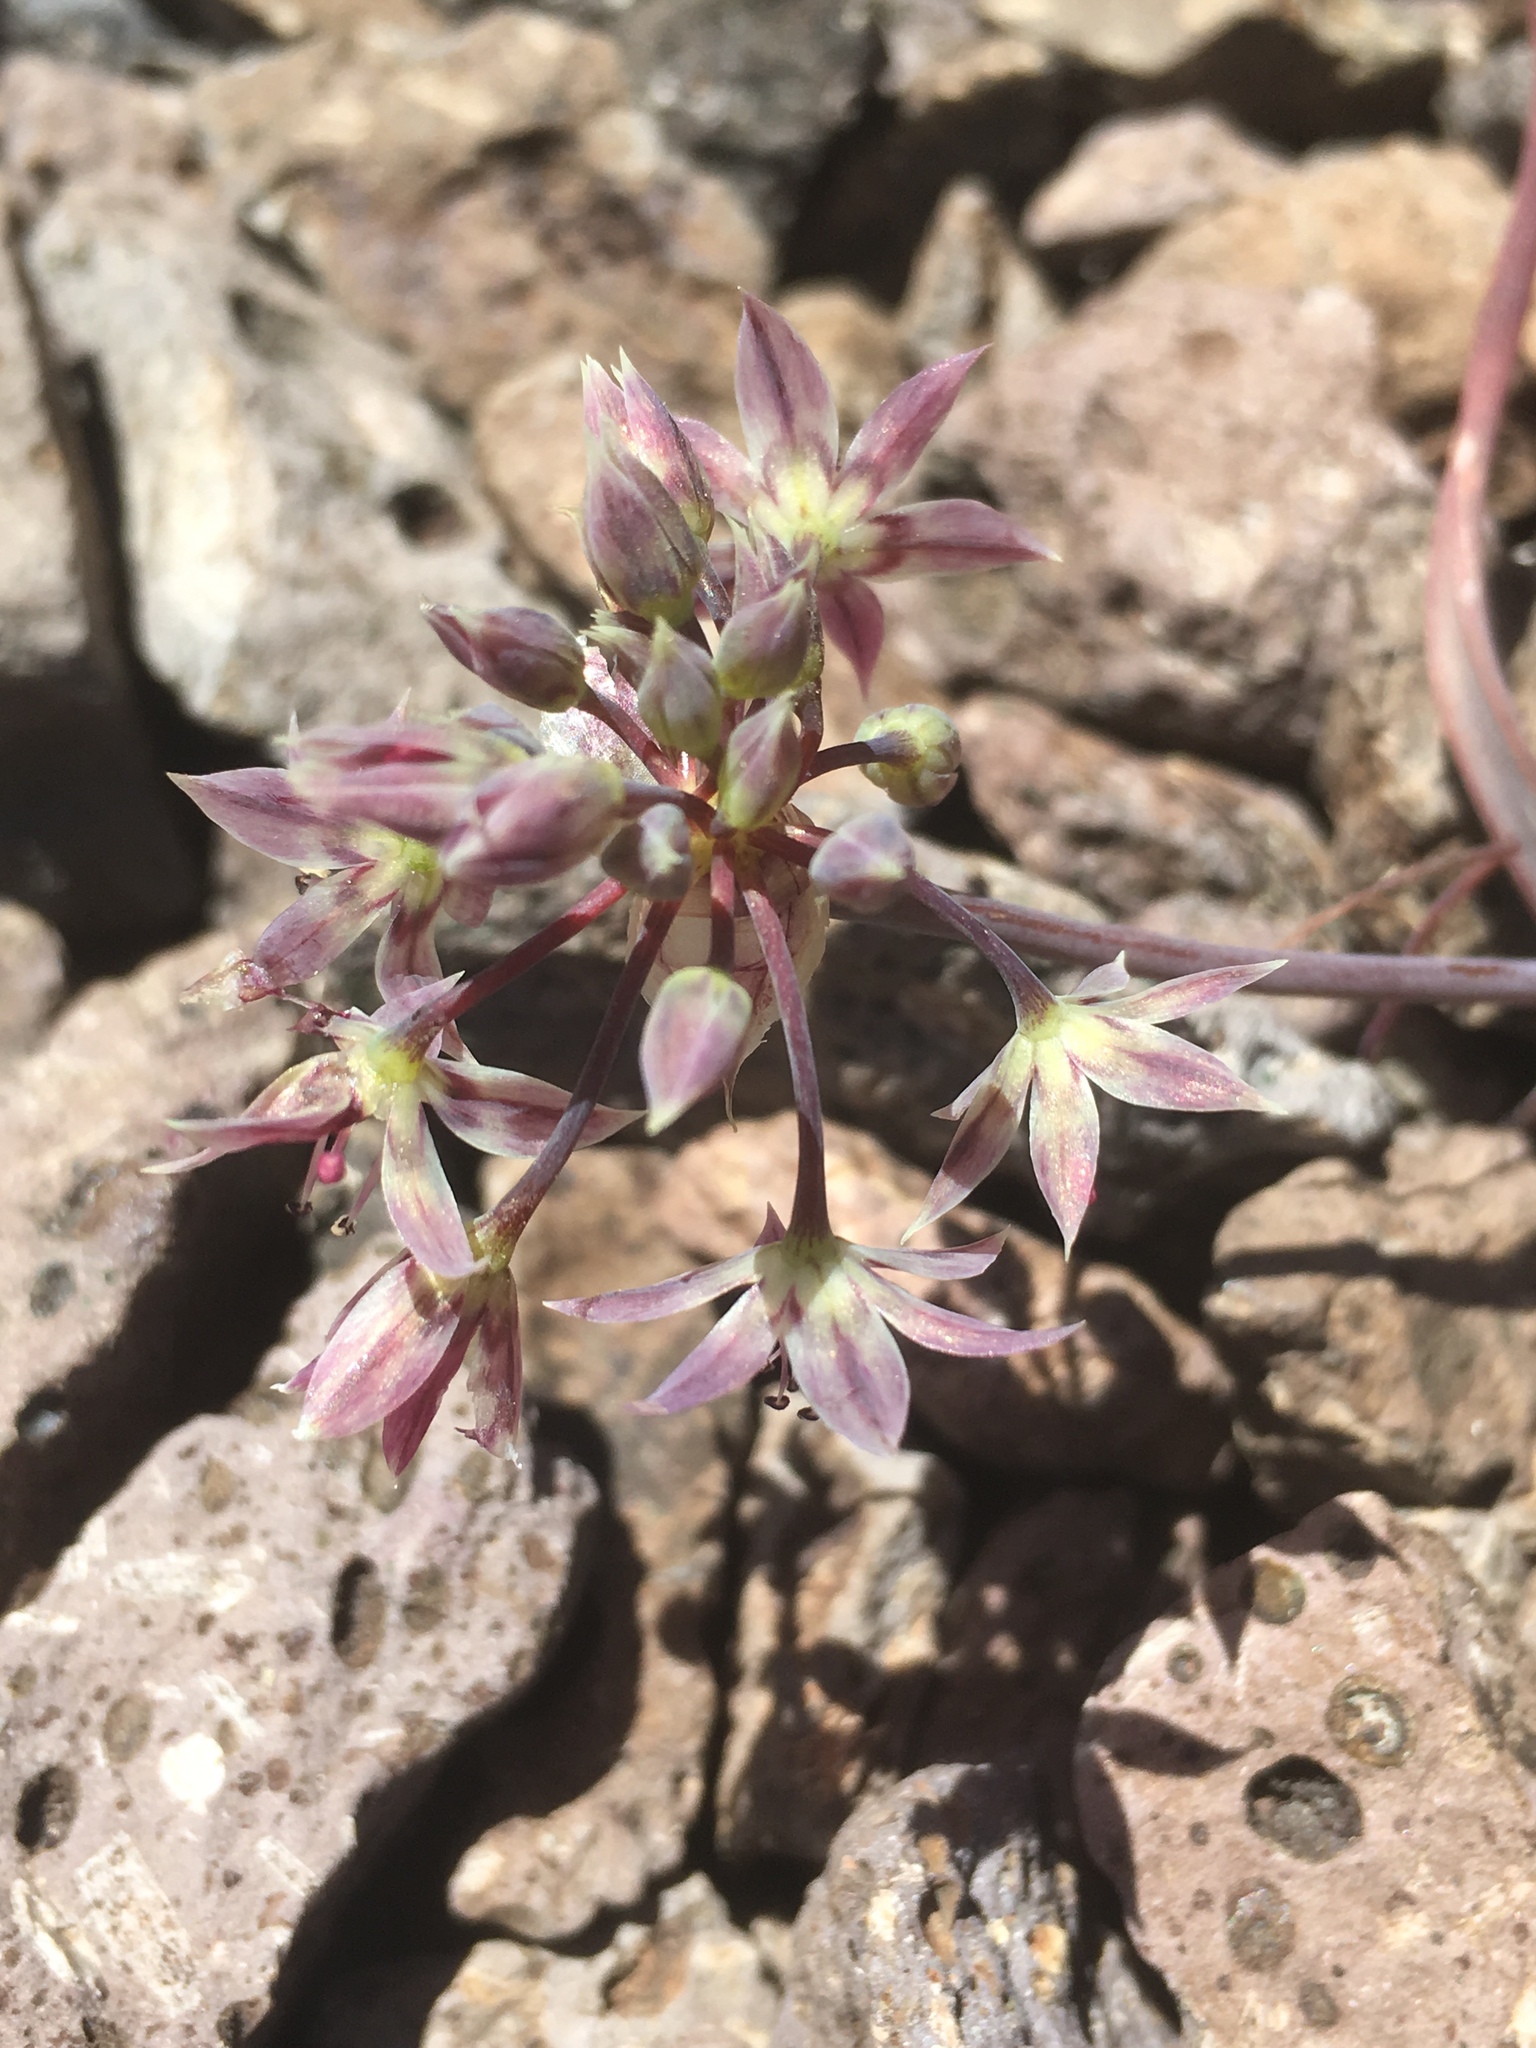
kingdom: Plantae
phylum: Tracheophyta
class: Liliopsida
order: Asparagales
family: Amaryllidaceae
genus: Allium
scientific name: Allium campanulatum
